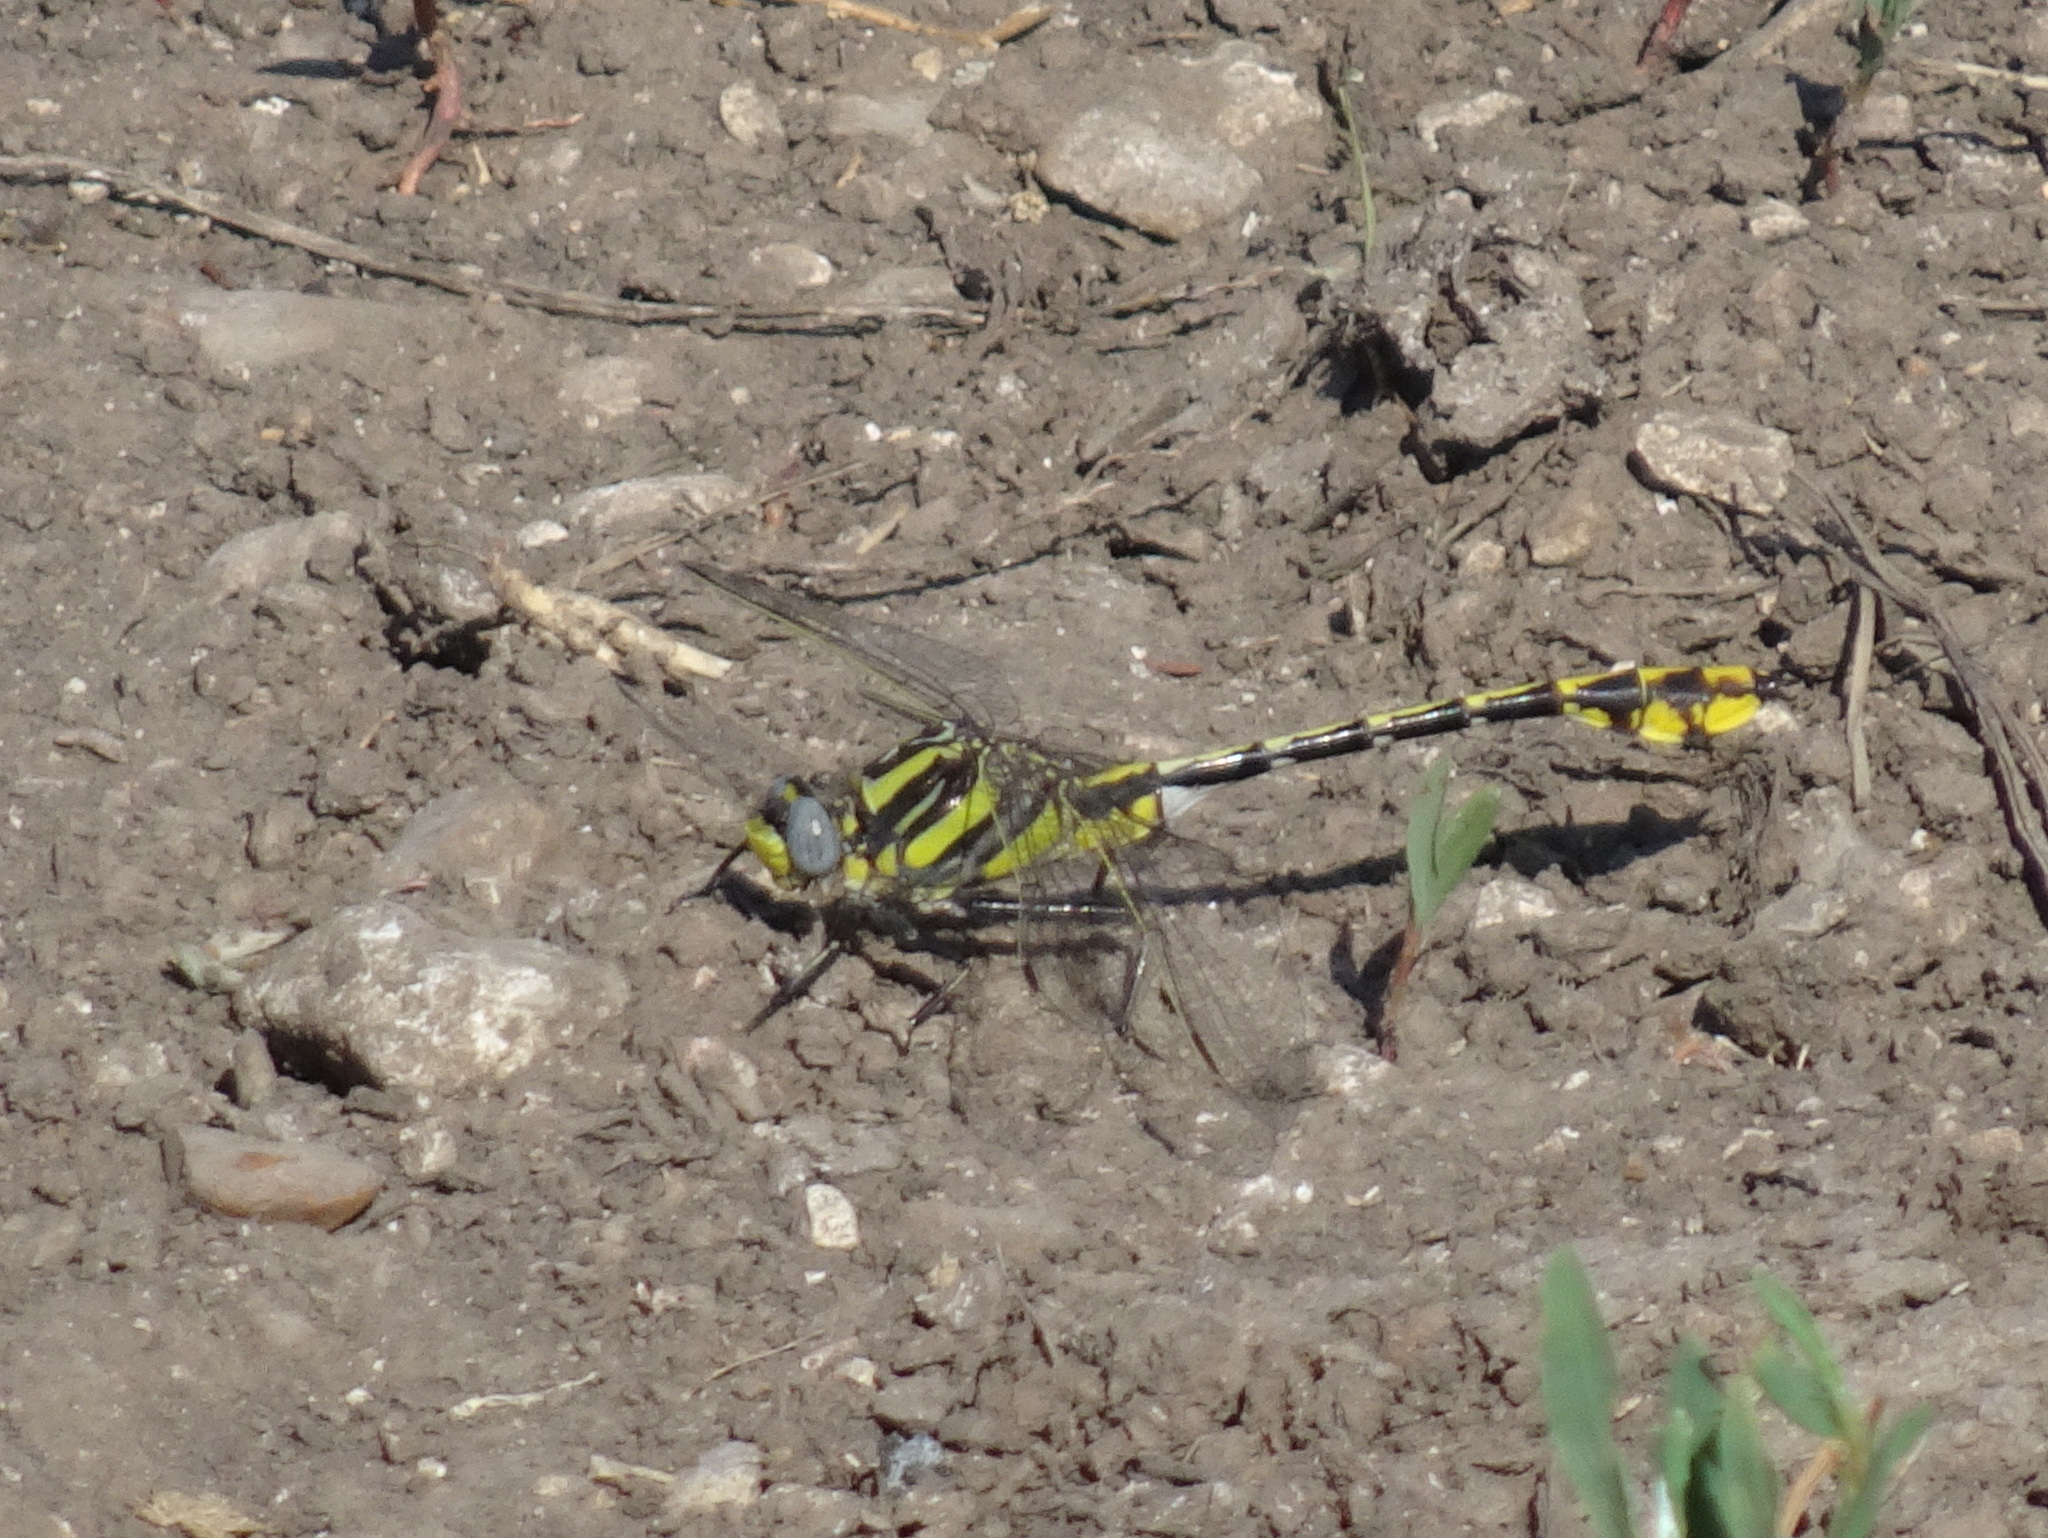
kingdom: Animalia
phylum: Arthropoda
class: Insecta
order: Odonata
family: Gomphidae
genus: Gomphurus
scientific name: Gomphurus externus
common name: Plains clubtail
